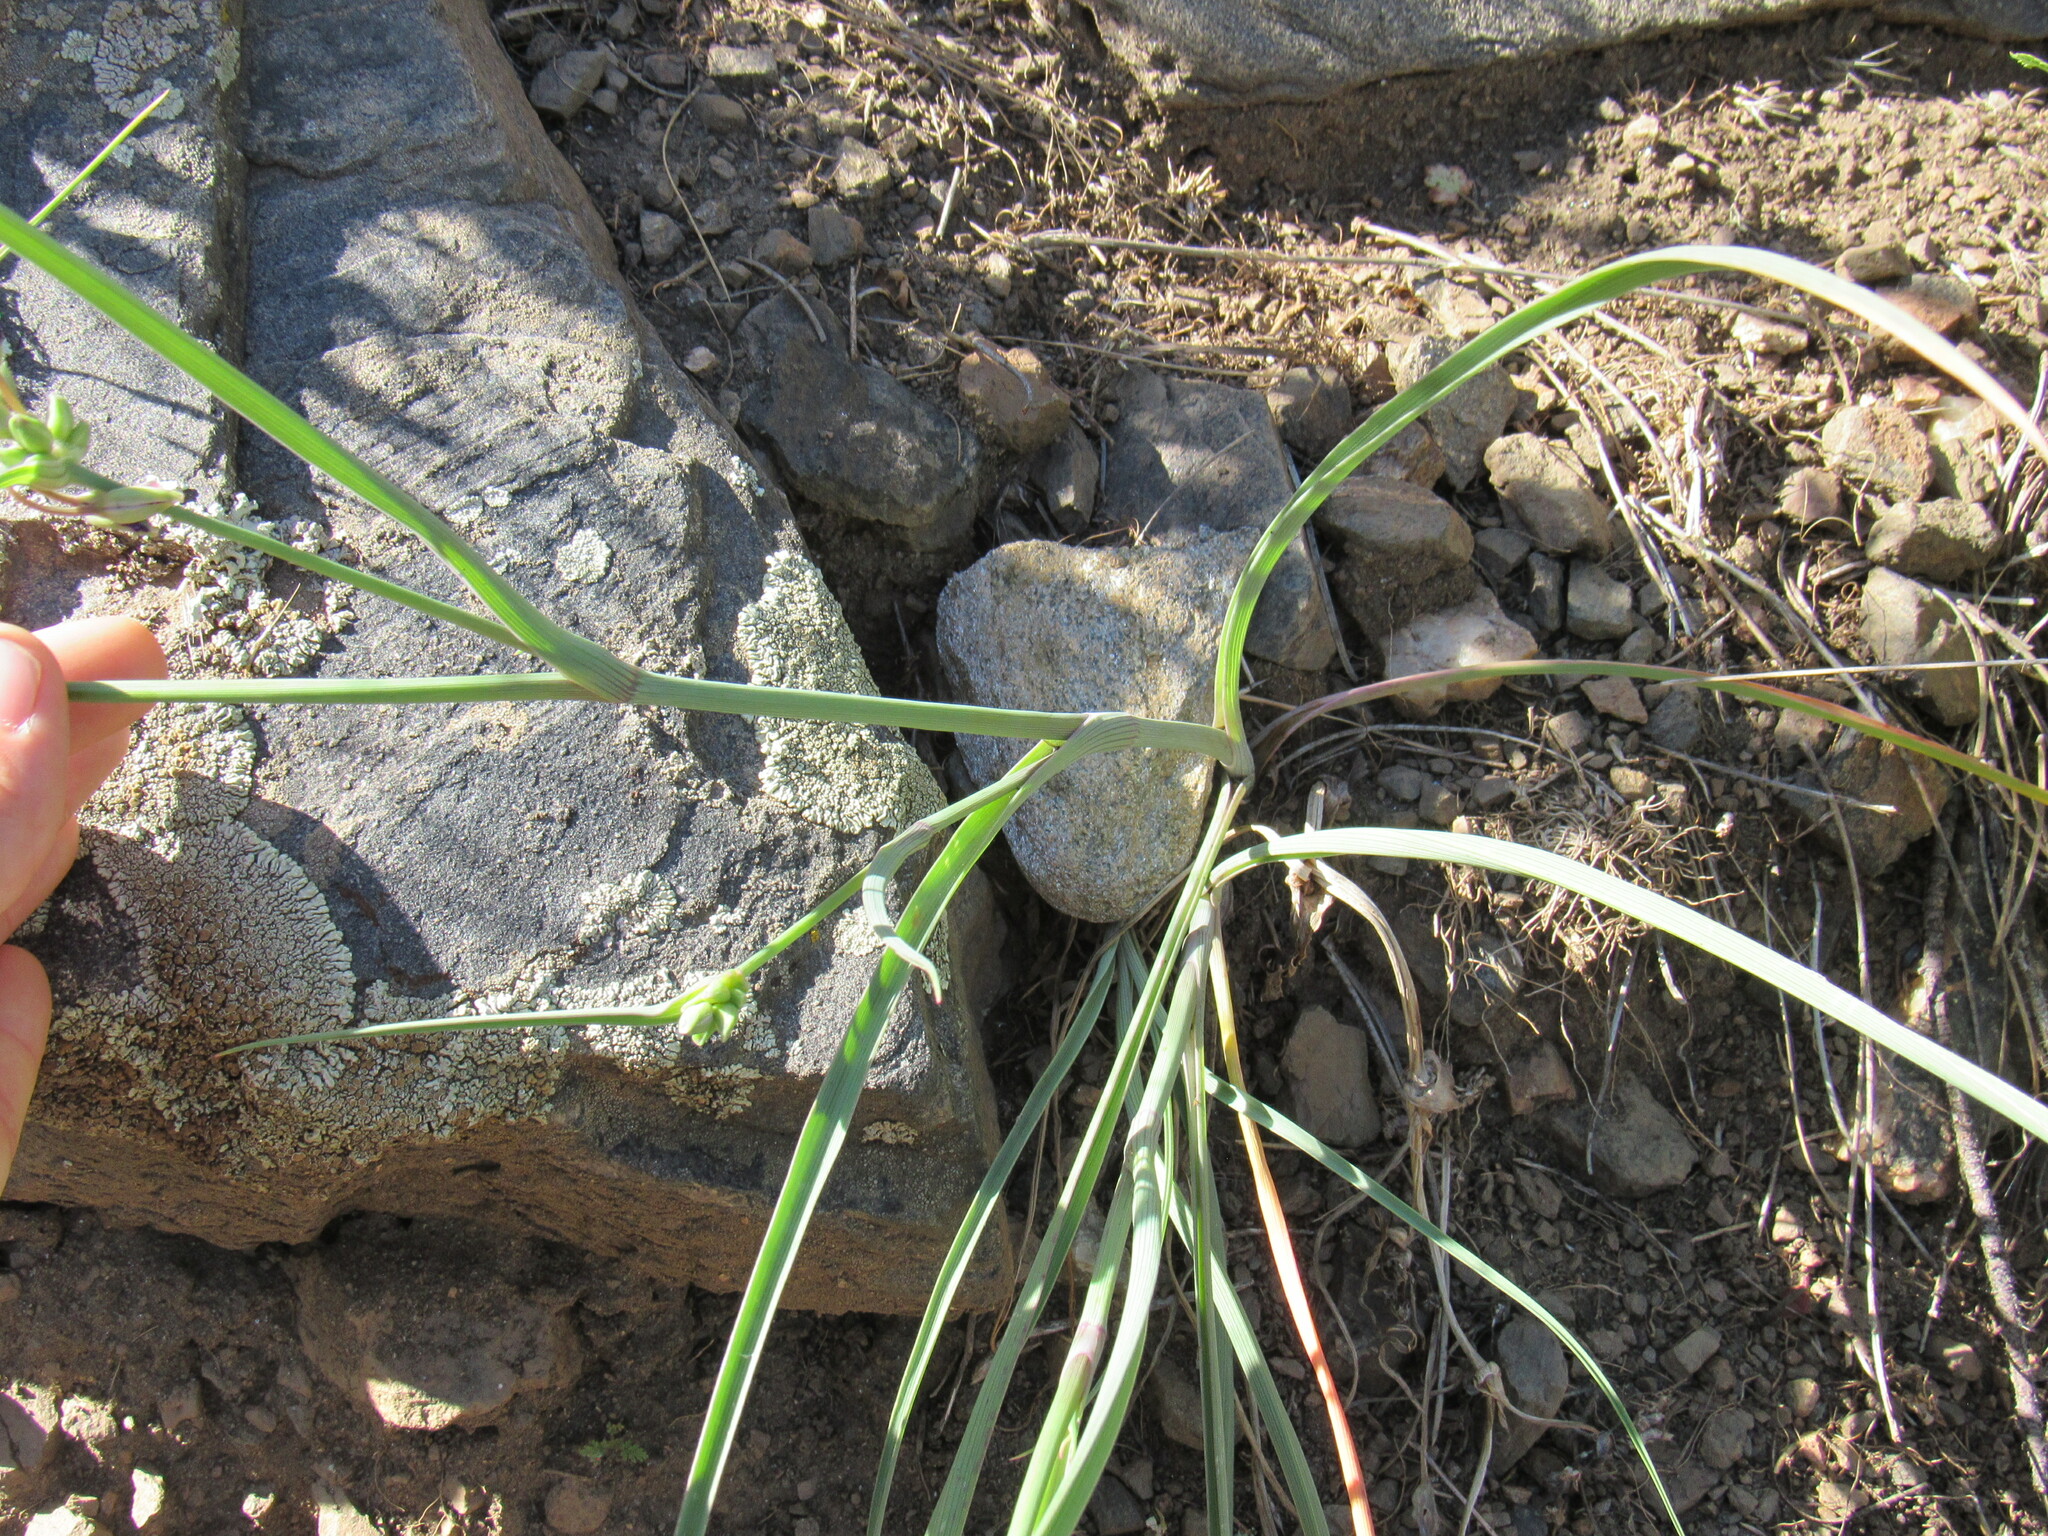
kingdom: Plantae
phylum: Tracheophyta
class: Liliopsida
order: Commelinales
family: Commelinaceae
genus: Tradescantia
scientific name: Tradescantia occidentalis
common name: Prairie spiderwort
